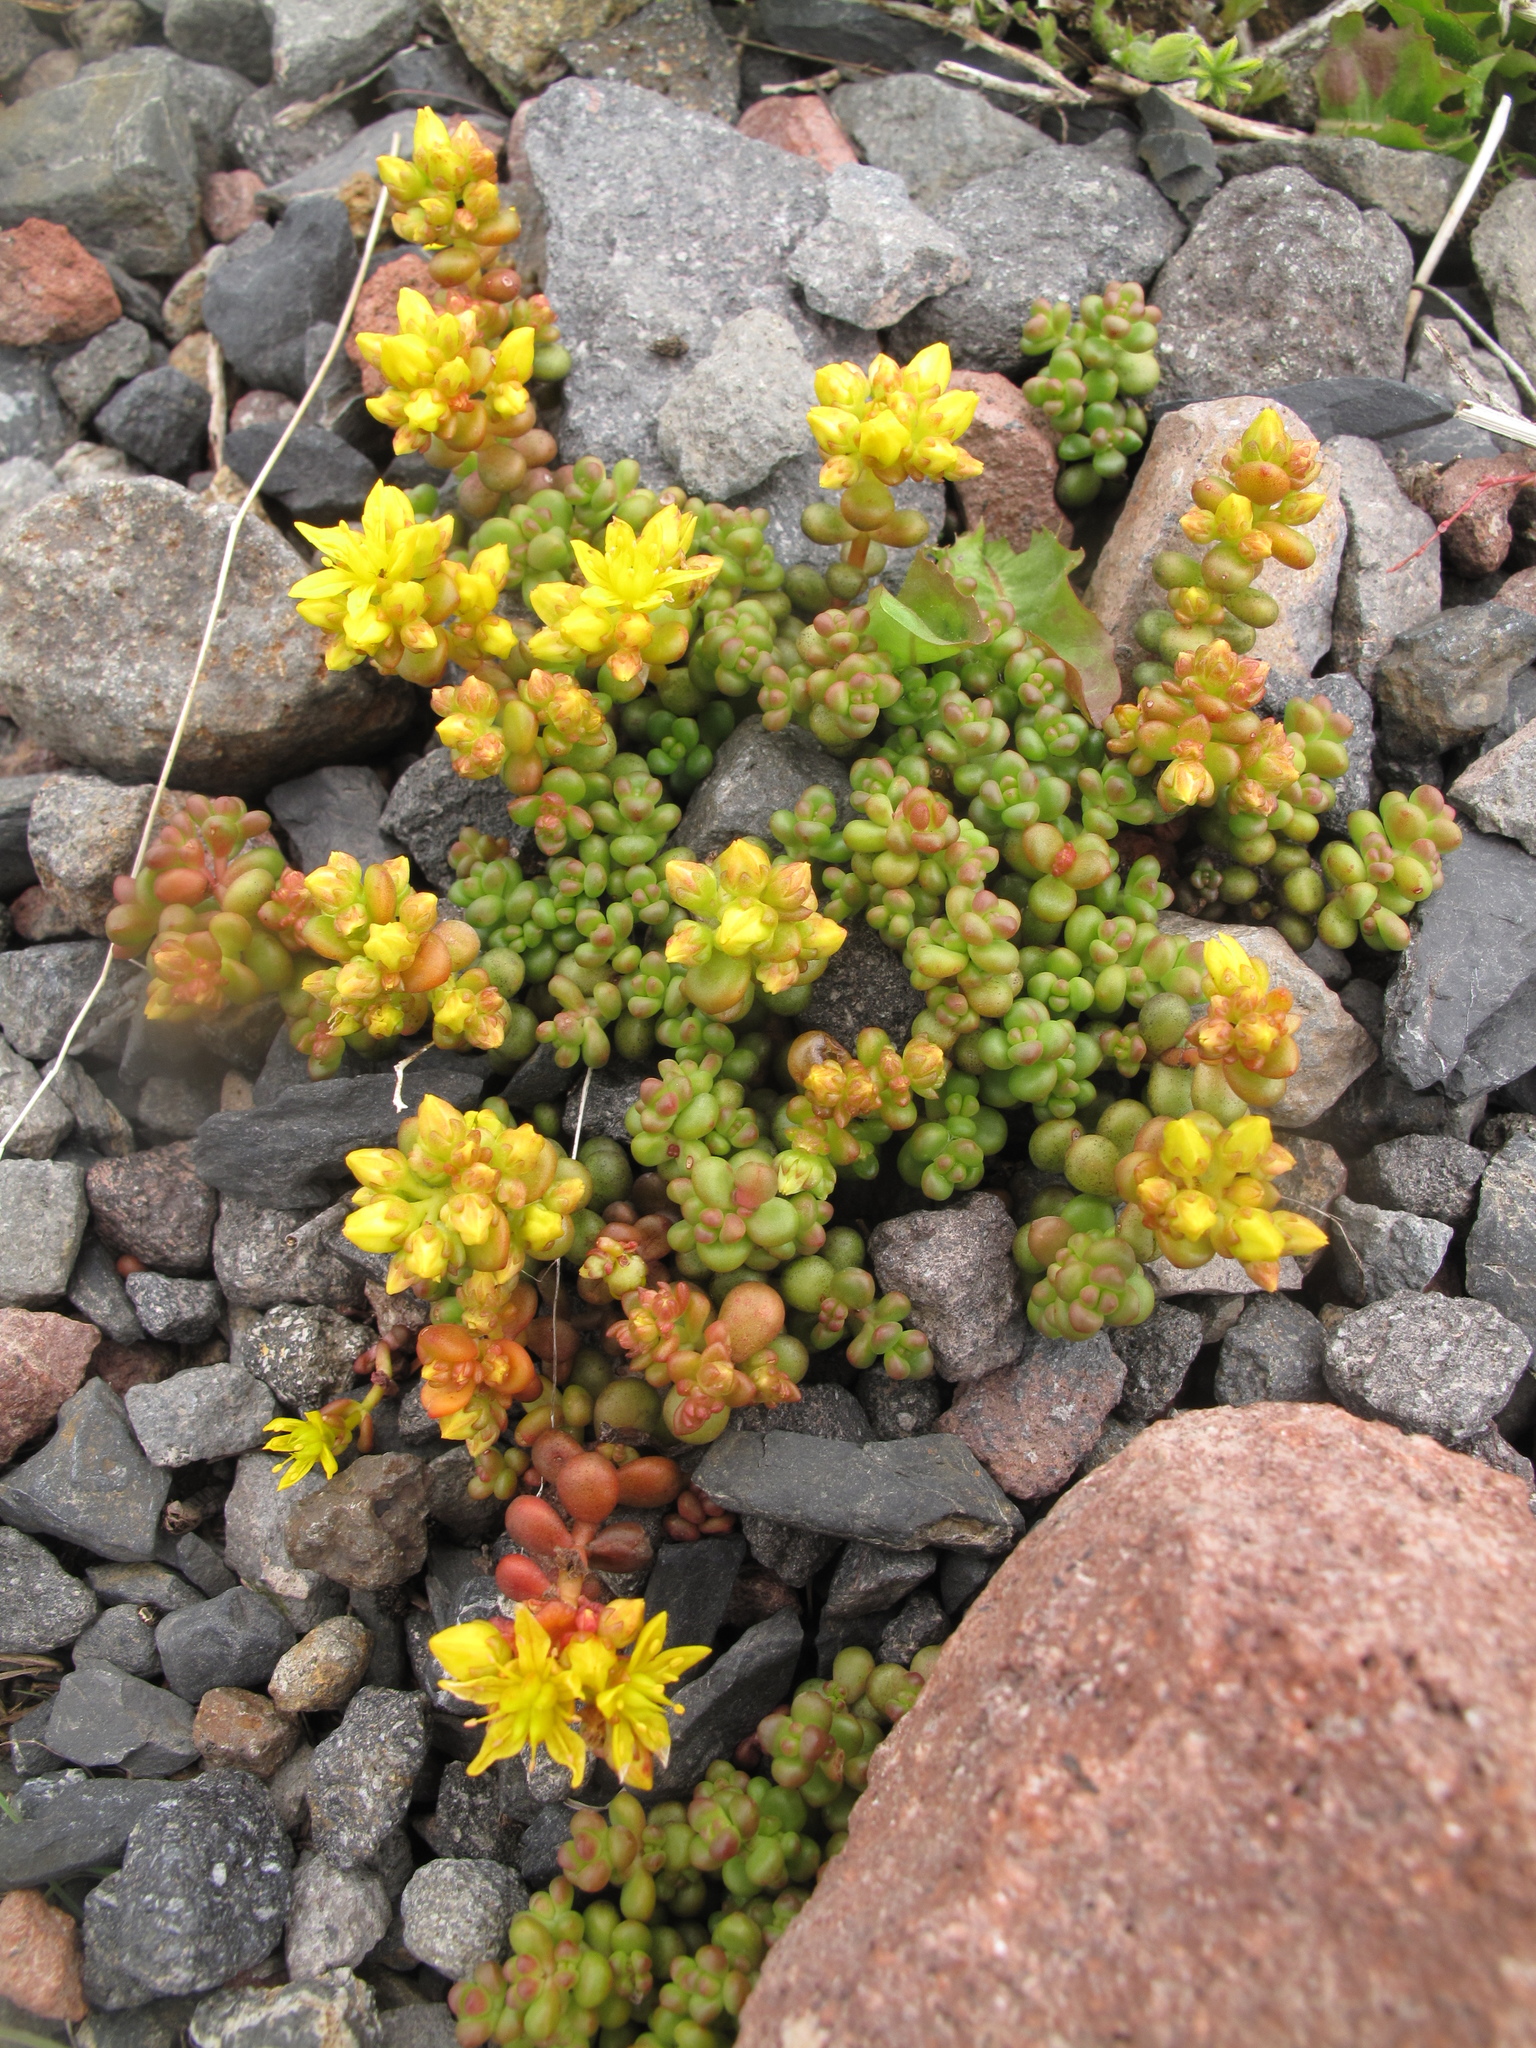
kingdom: Plantae
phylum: Tracheophyta
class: Magnoliopsida
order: Saxifragales
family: Crassulaceae
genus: Sedum
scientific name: Sedum divergens
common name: Cascade stonecrop
